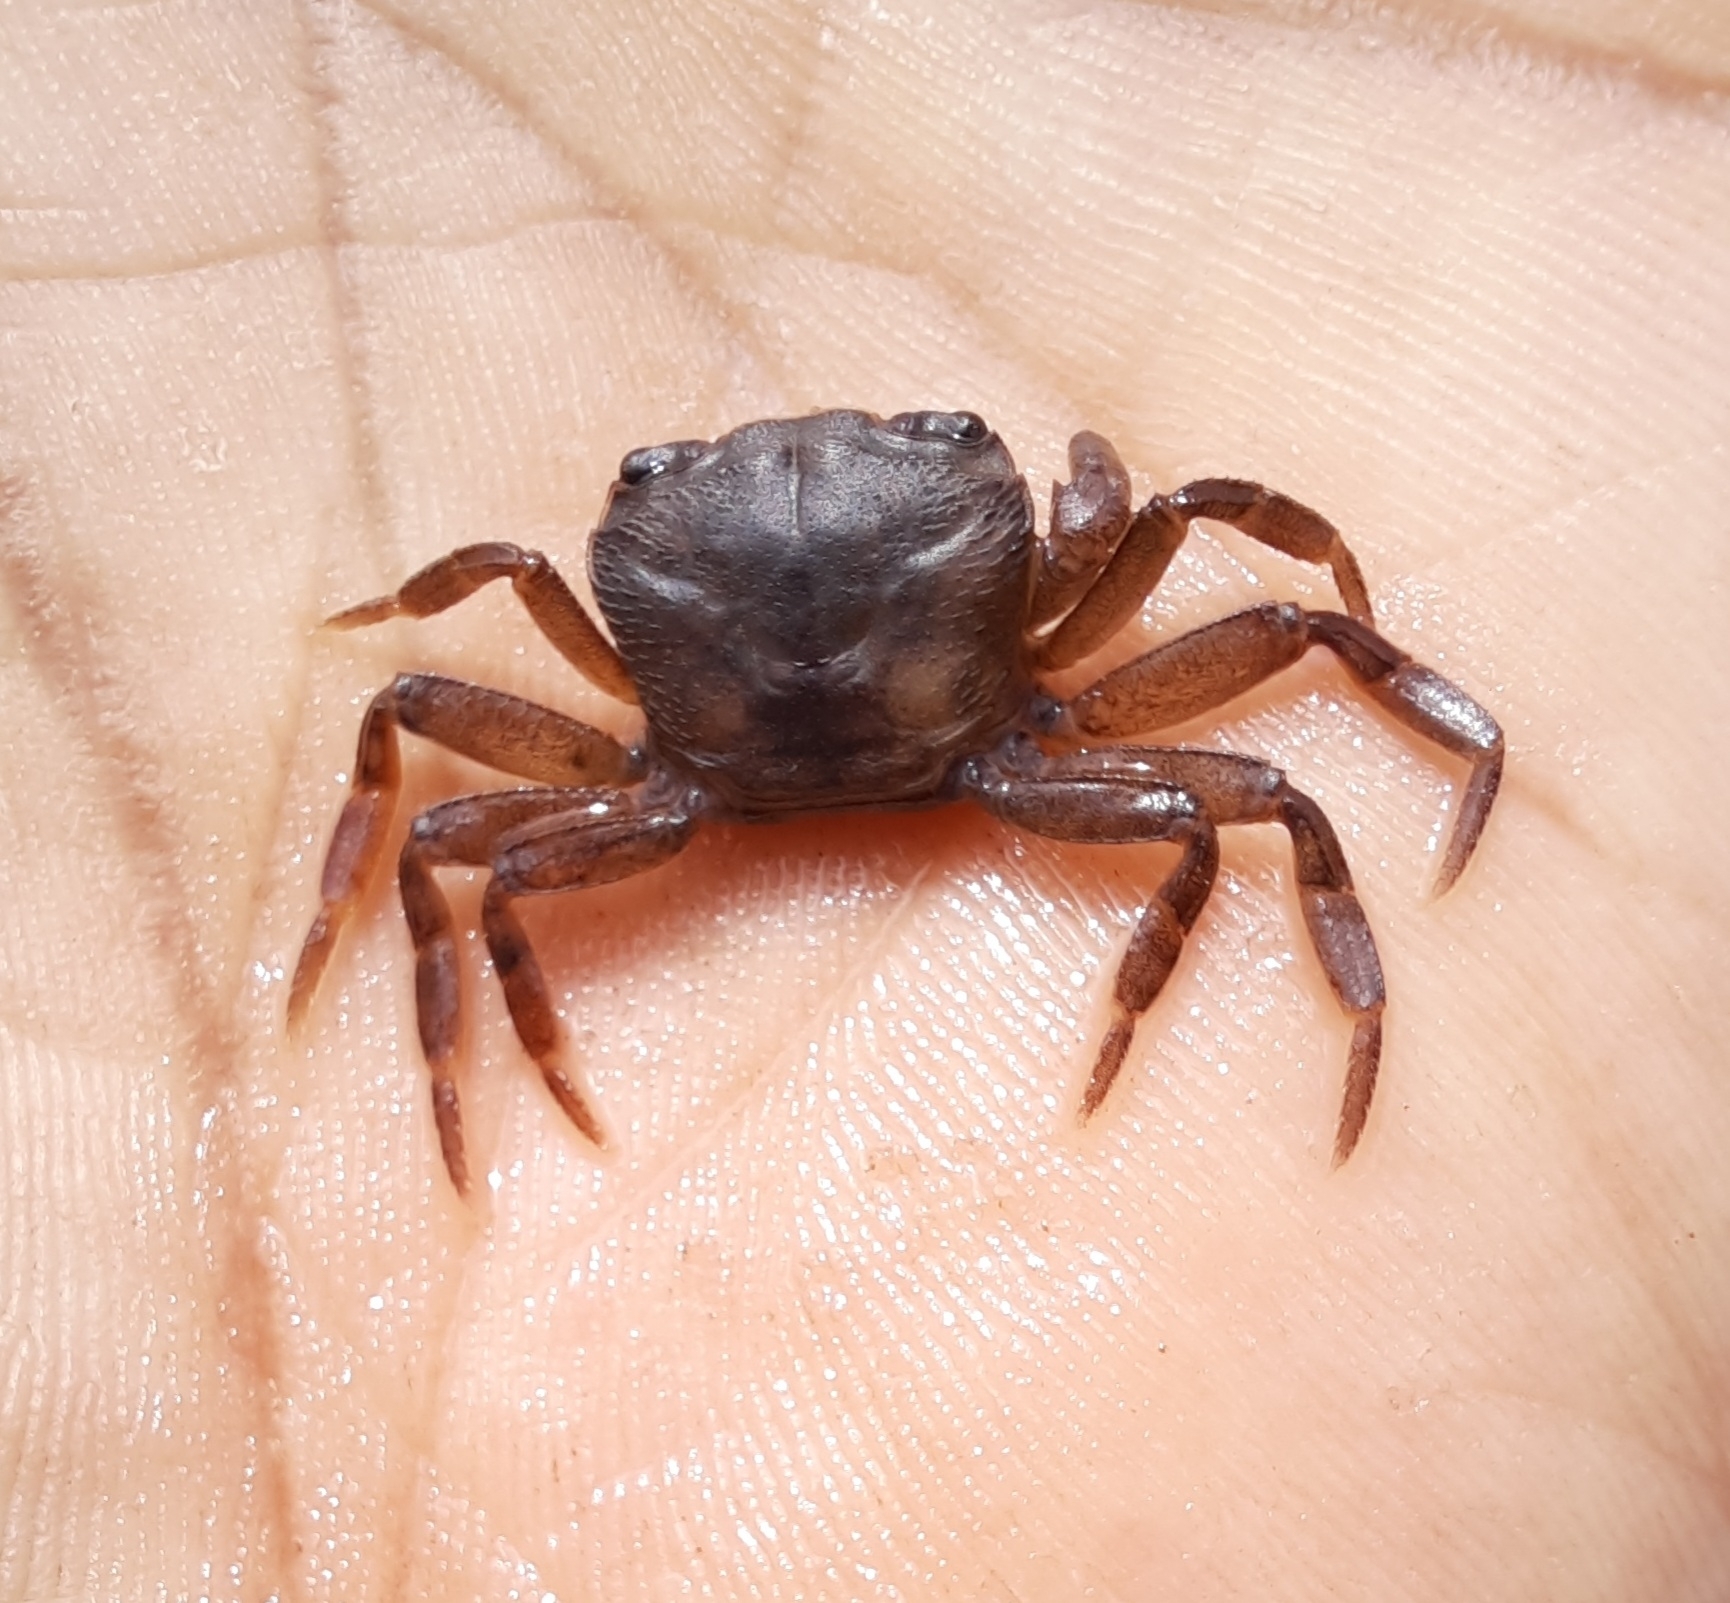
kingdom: Animalia
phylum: Arthropoda
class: Malacostraca
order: Decapoda
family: Gecarcinucidae
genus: Vanni
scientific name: Vanni travancorica
